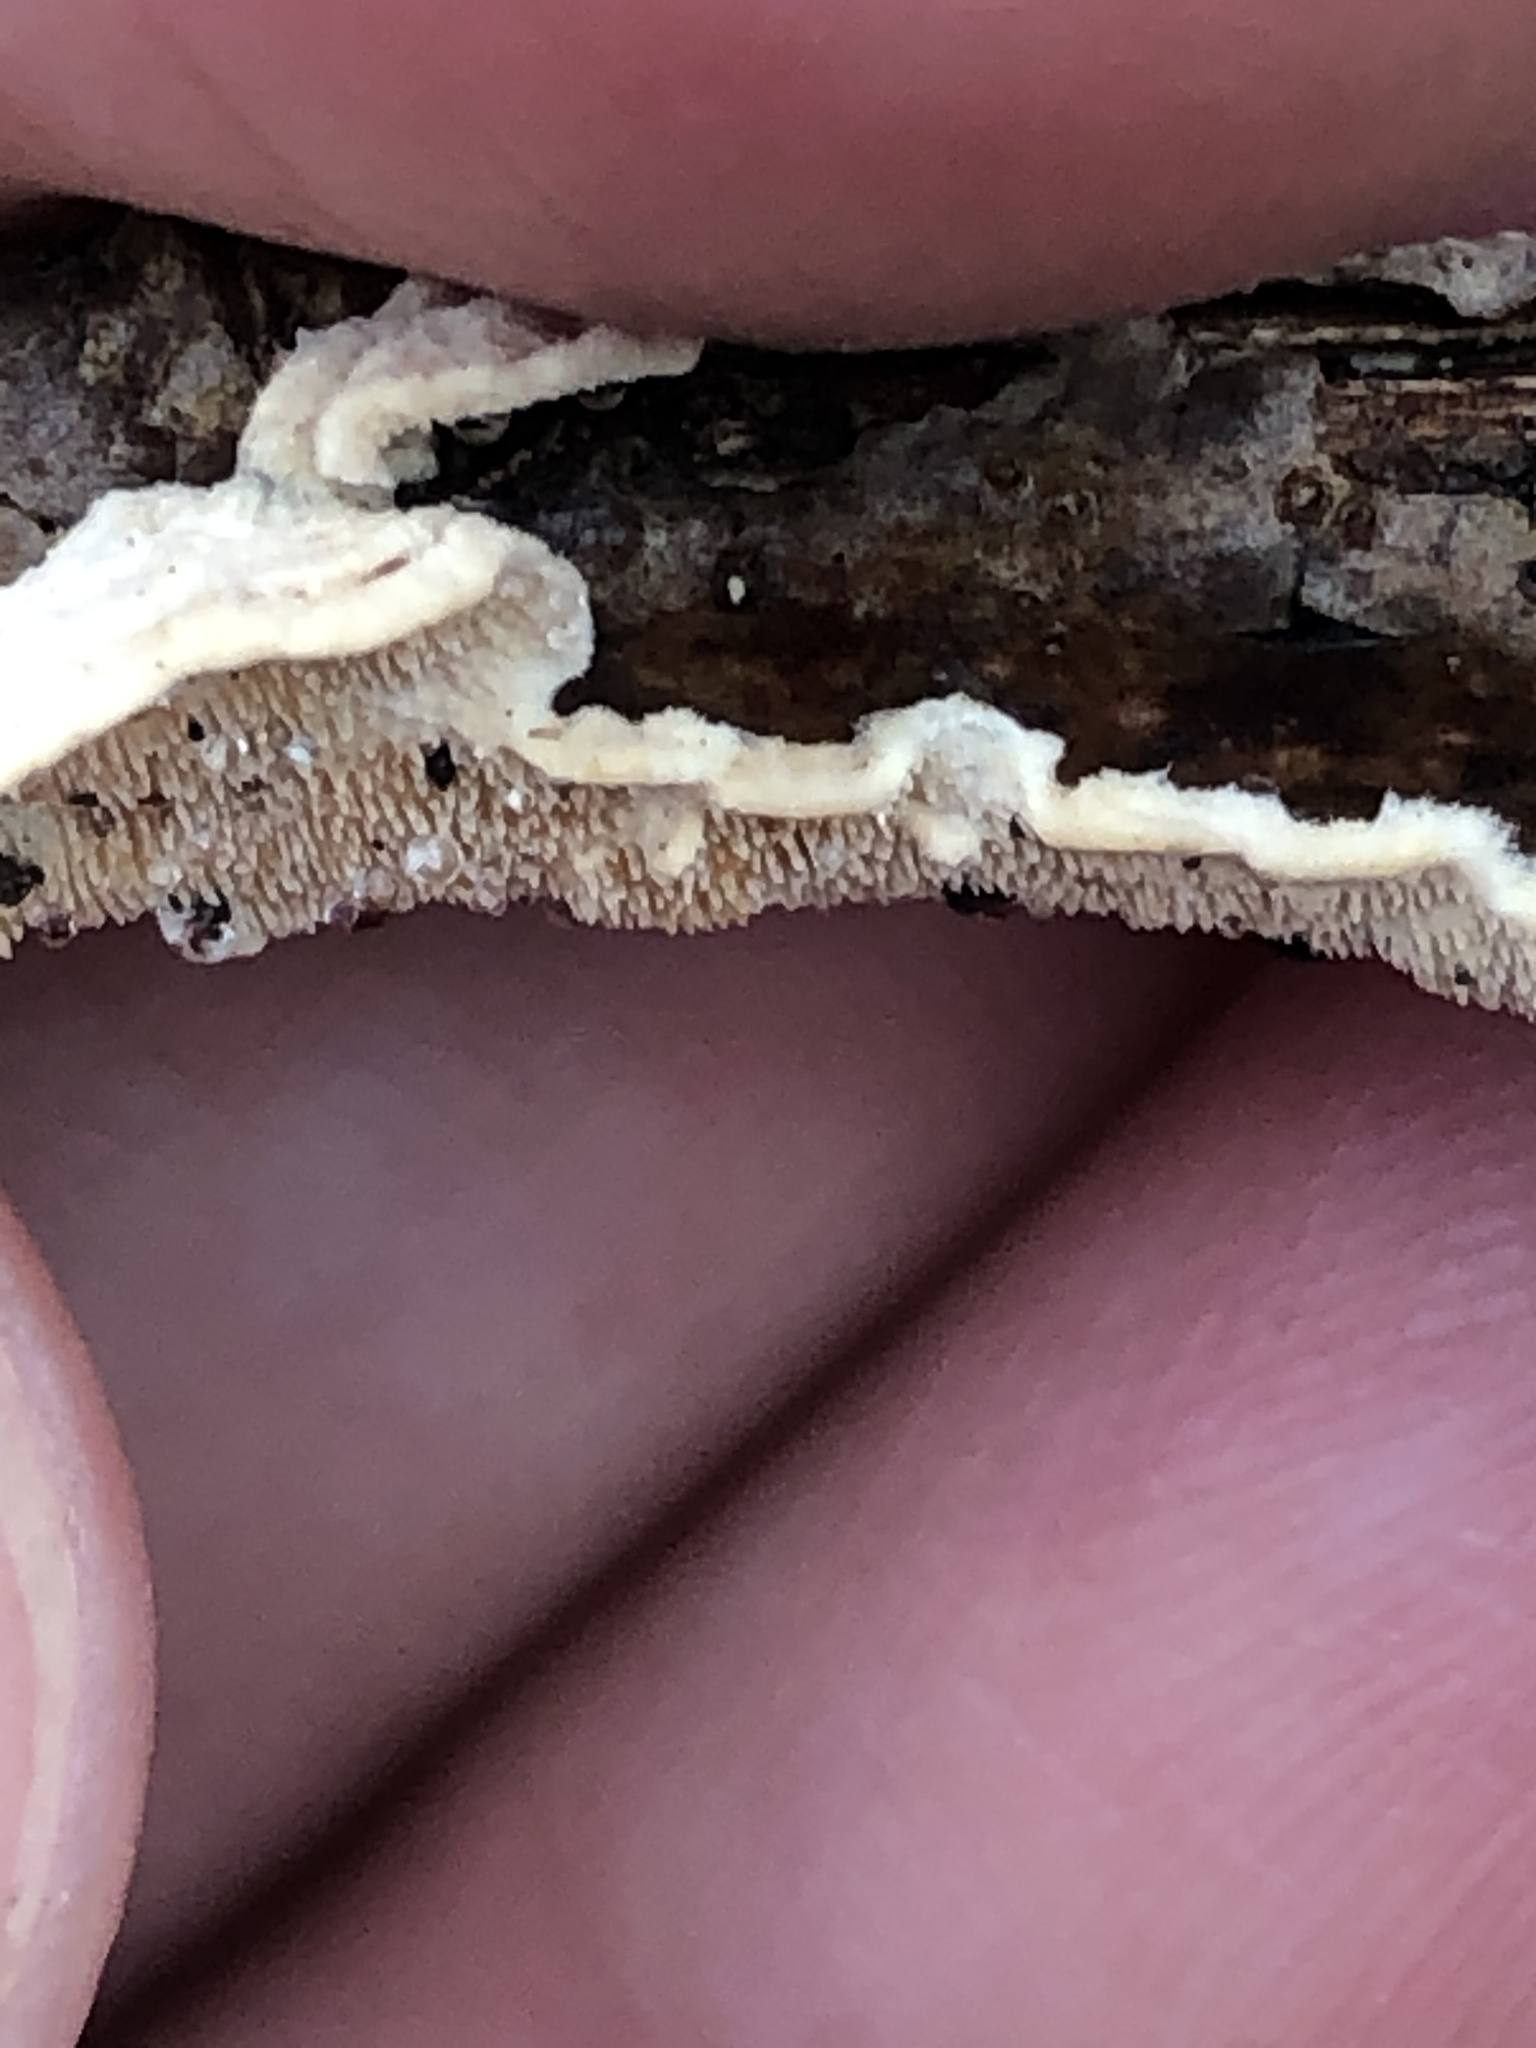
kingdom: Fungi
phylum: Basidiomycota
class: Agaricomycetes
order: Polyporales
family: Steccherinaceae
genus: Steccherinum
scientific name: Steccherinum ochraceum
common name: Ochre spreading tooth
